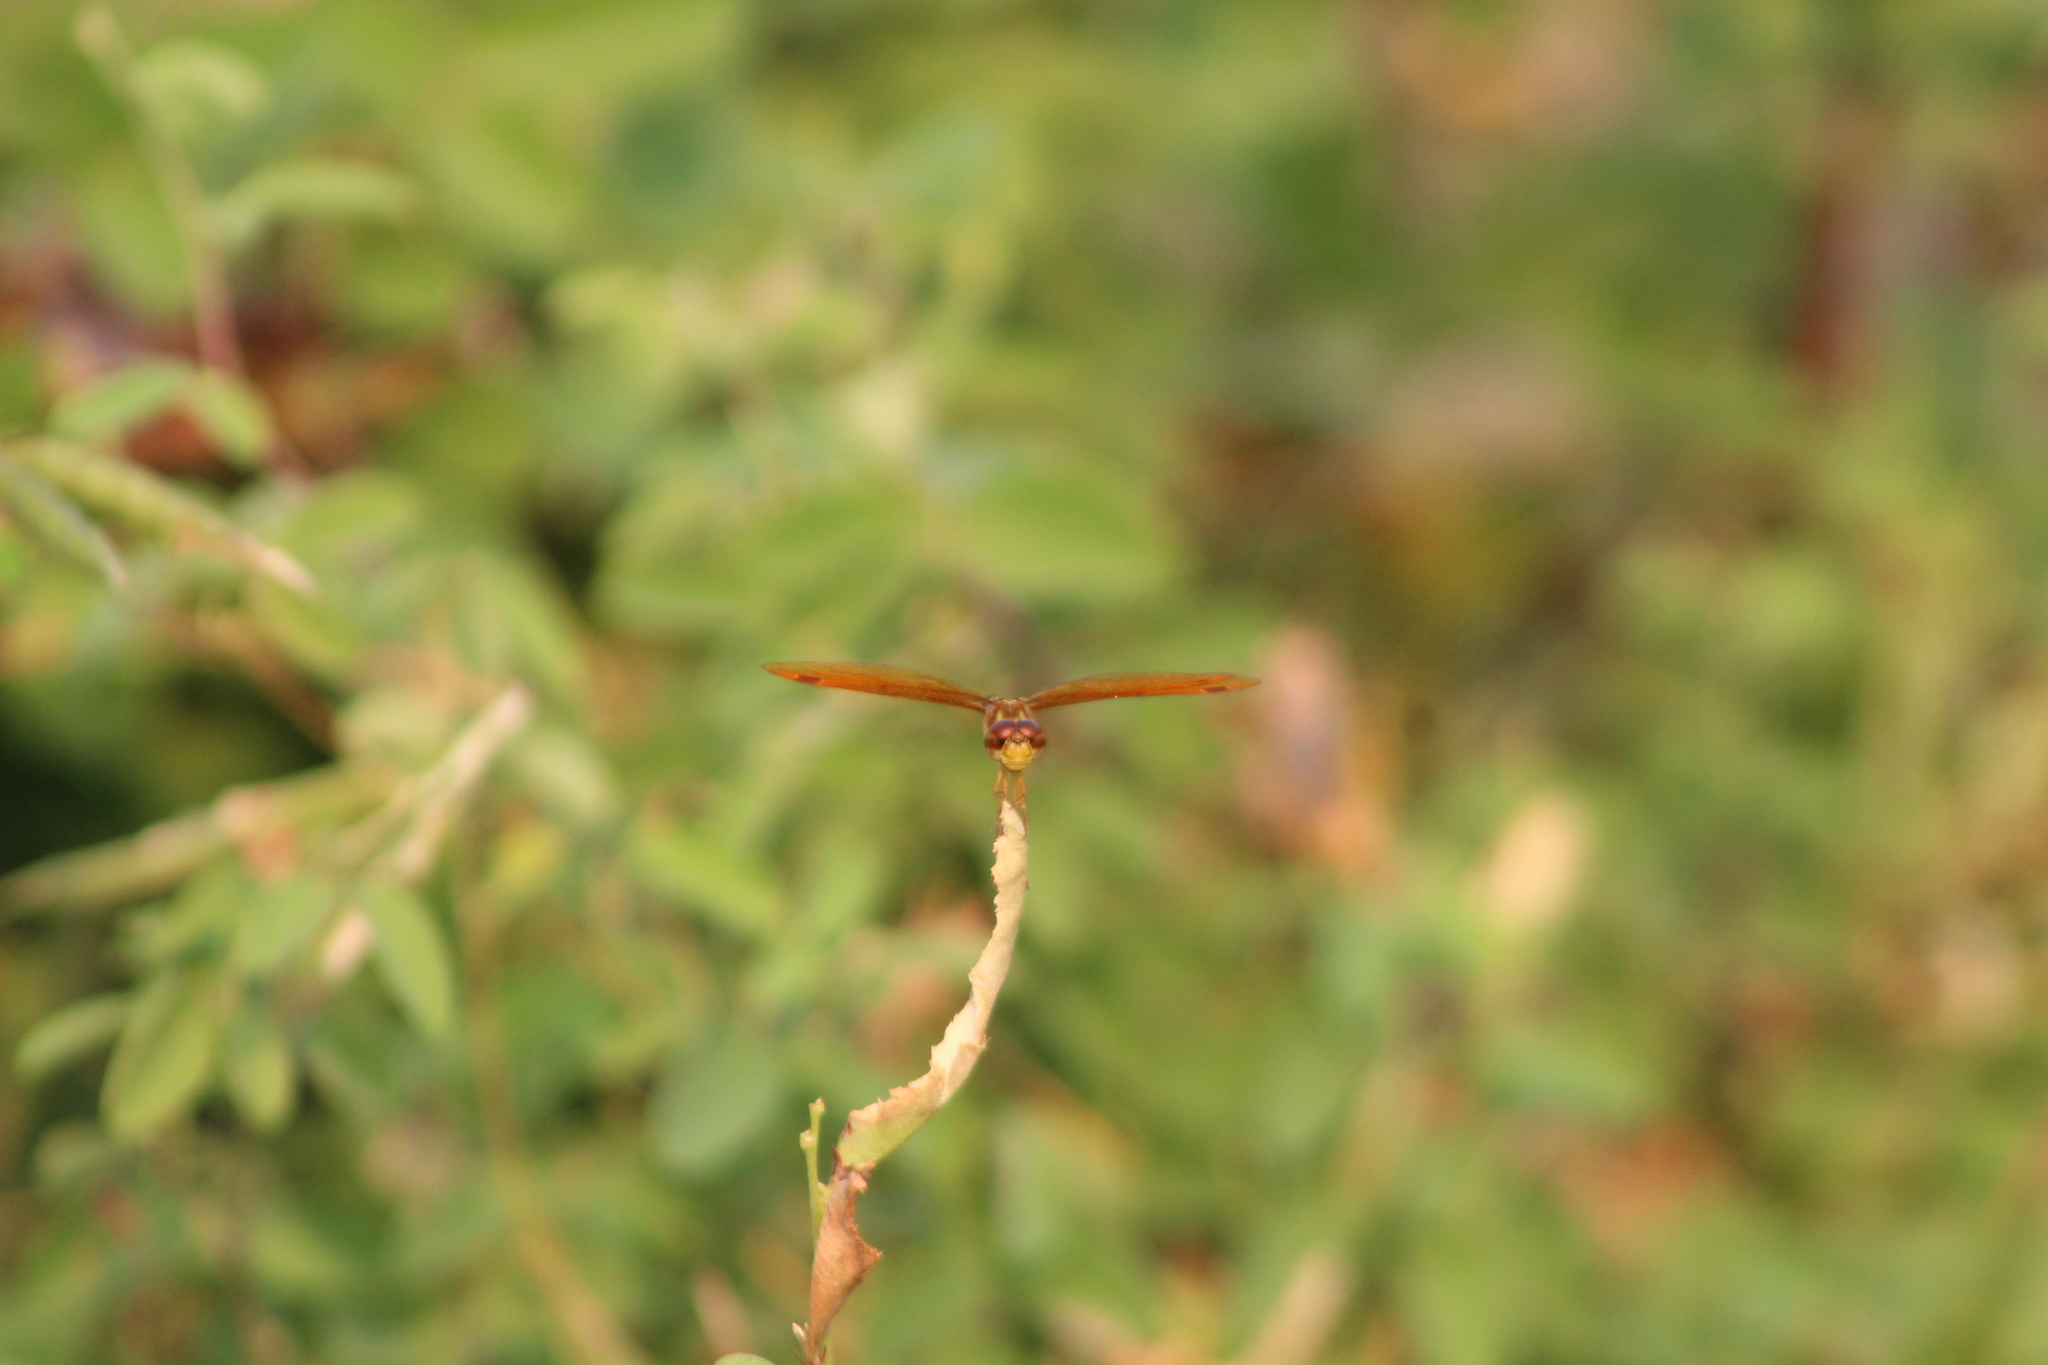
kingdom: Animalia
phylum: Arthropoda
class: Insecta
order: Odonata
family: Libellulidae
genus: Perithemis
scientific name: Perithemis tenera
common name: Eastern amberwing
